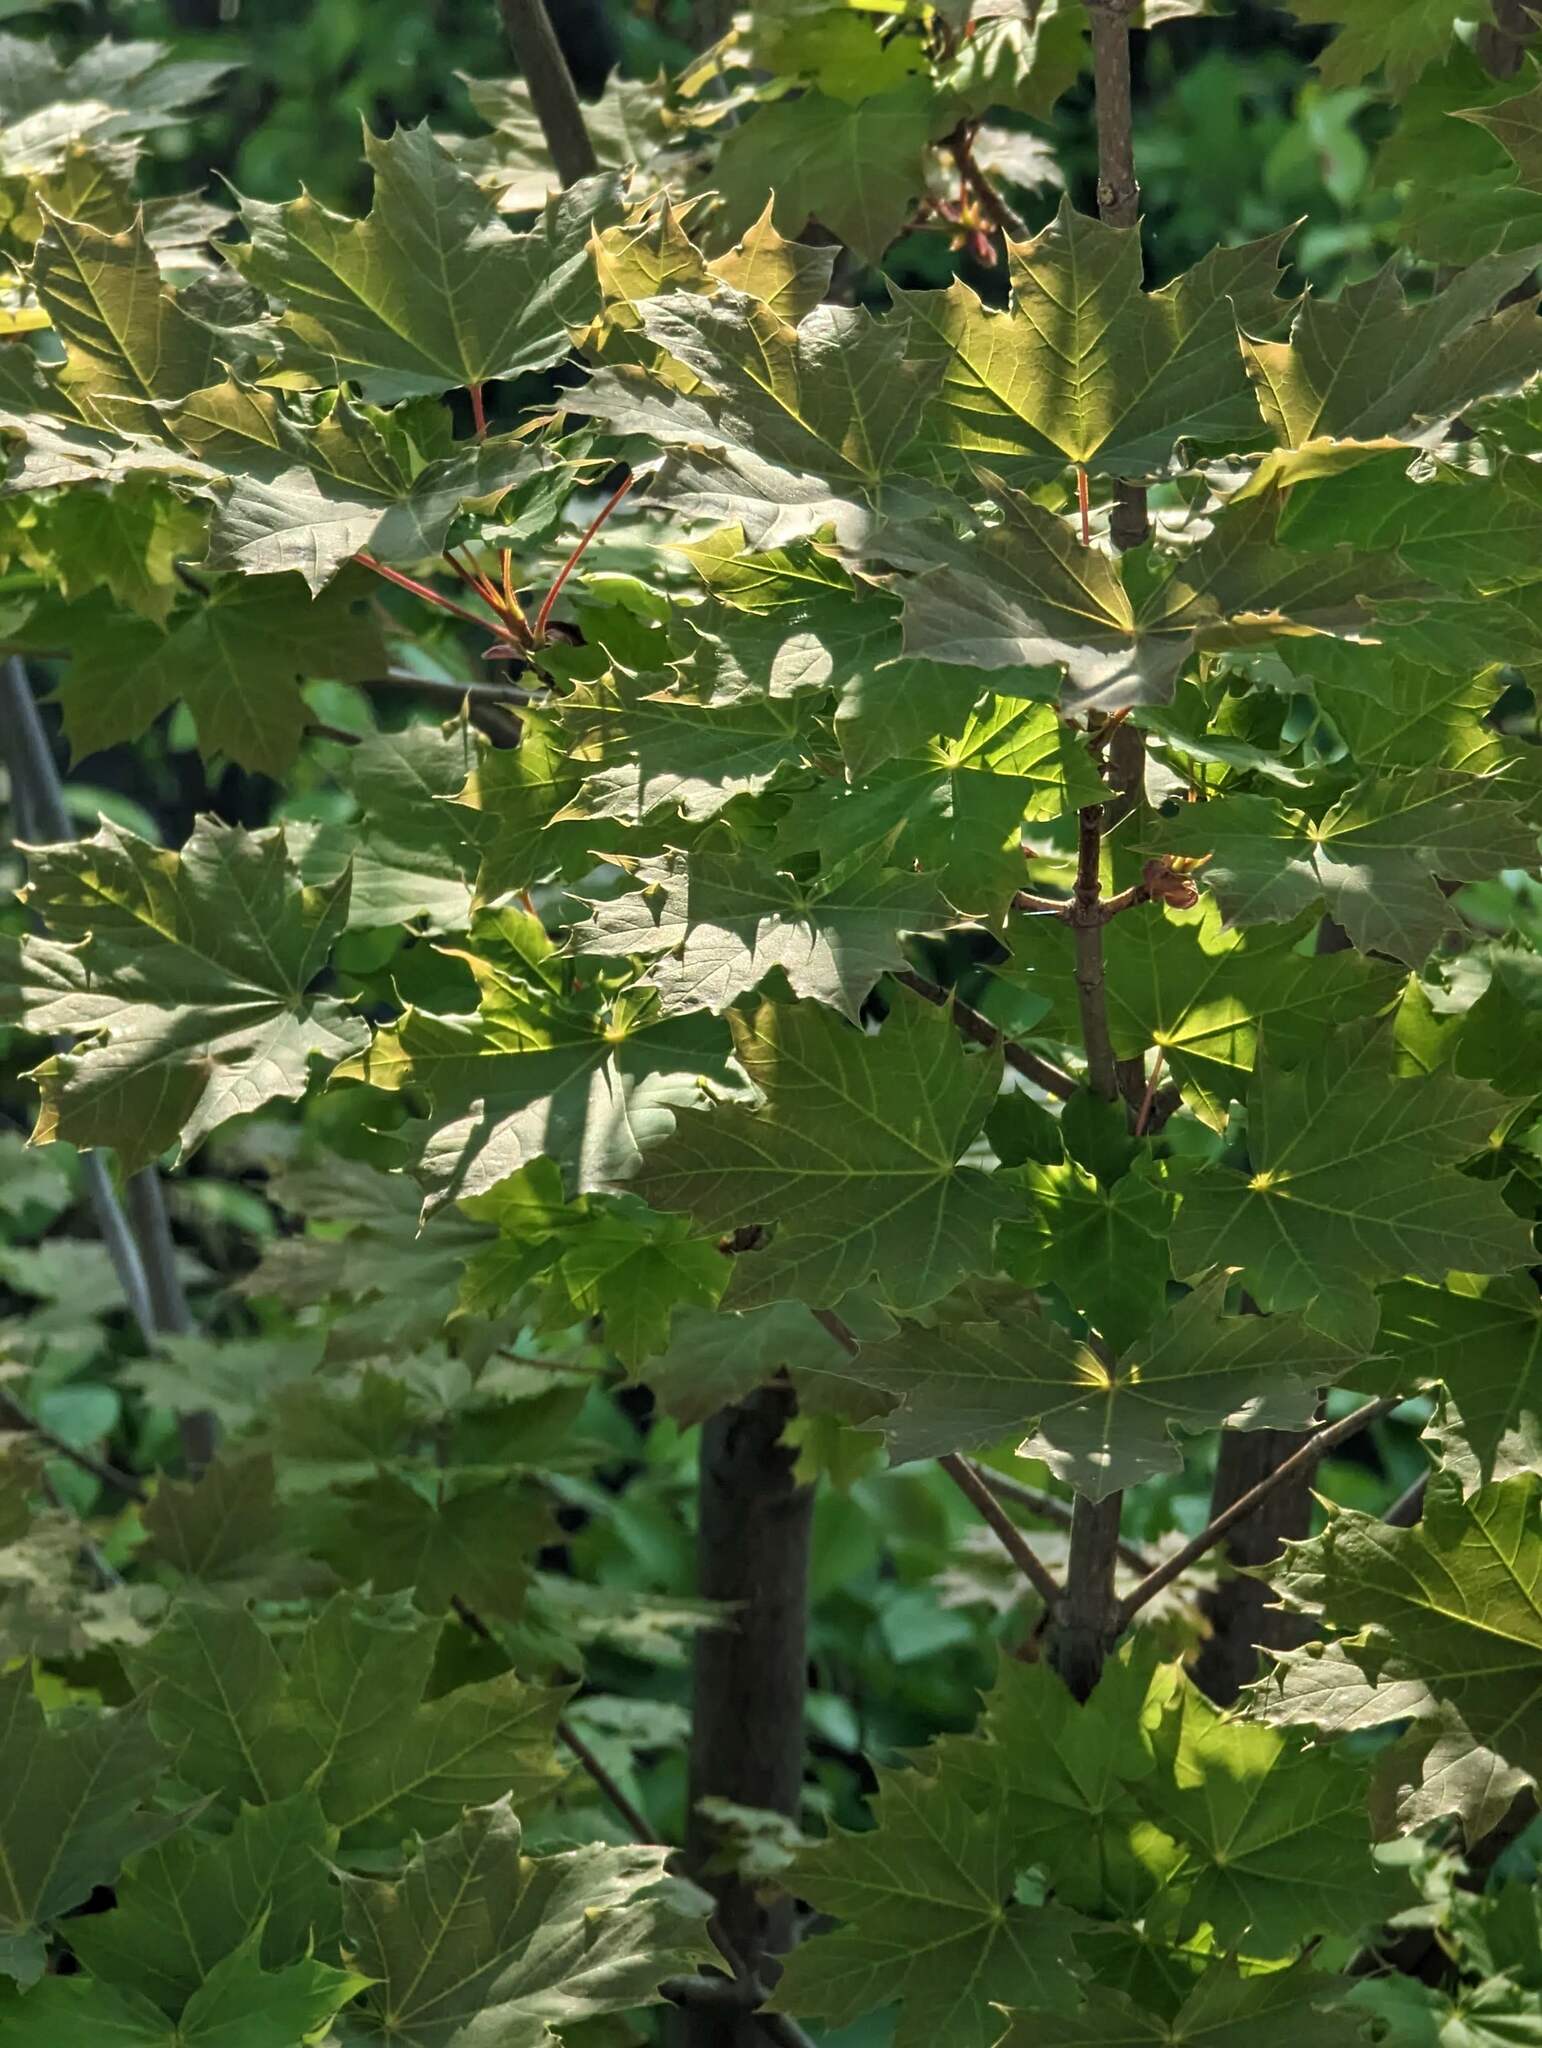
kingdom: Plantae
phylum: Tracheophyta
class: Magnoliopsida
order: Sapindales
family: Sapindaceae
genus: Acer
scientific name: Acer platanoides
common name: Norway maple
